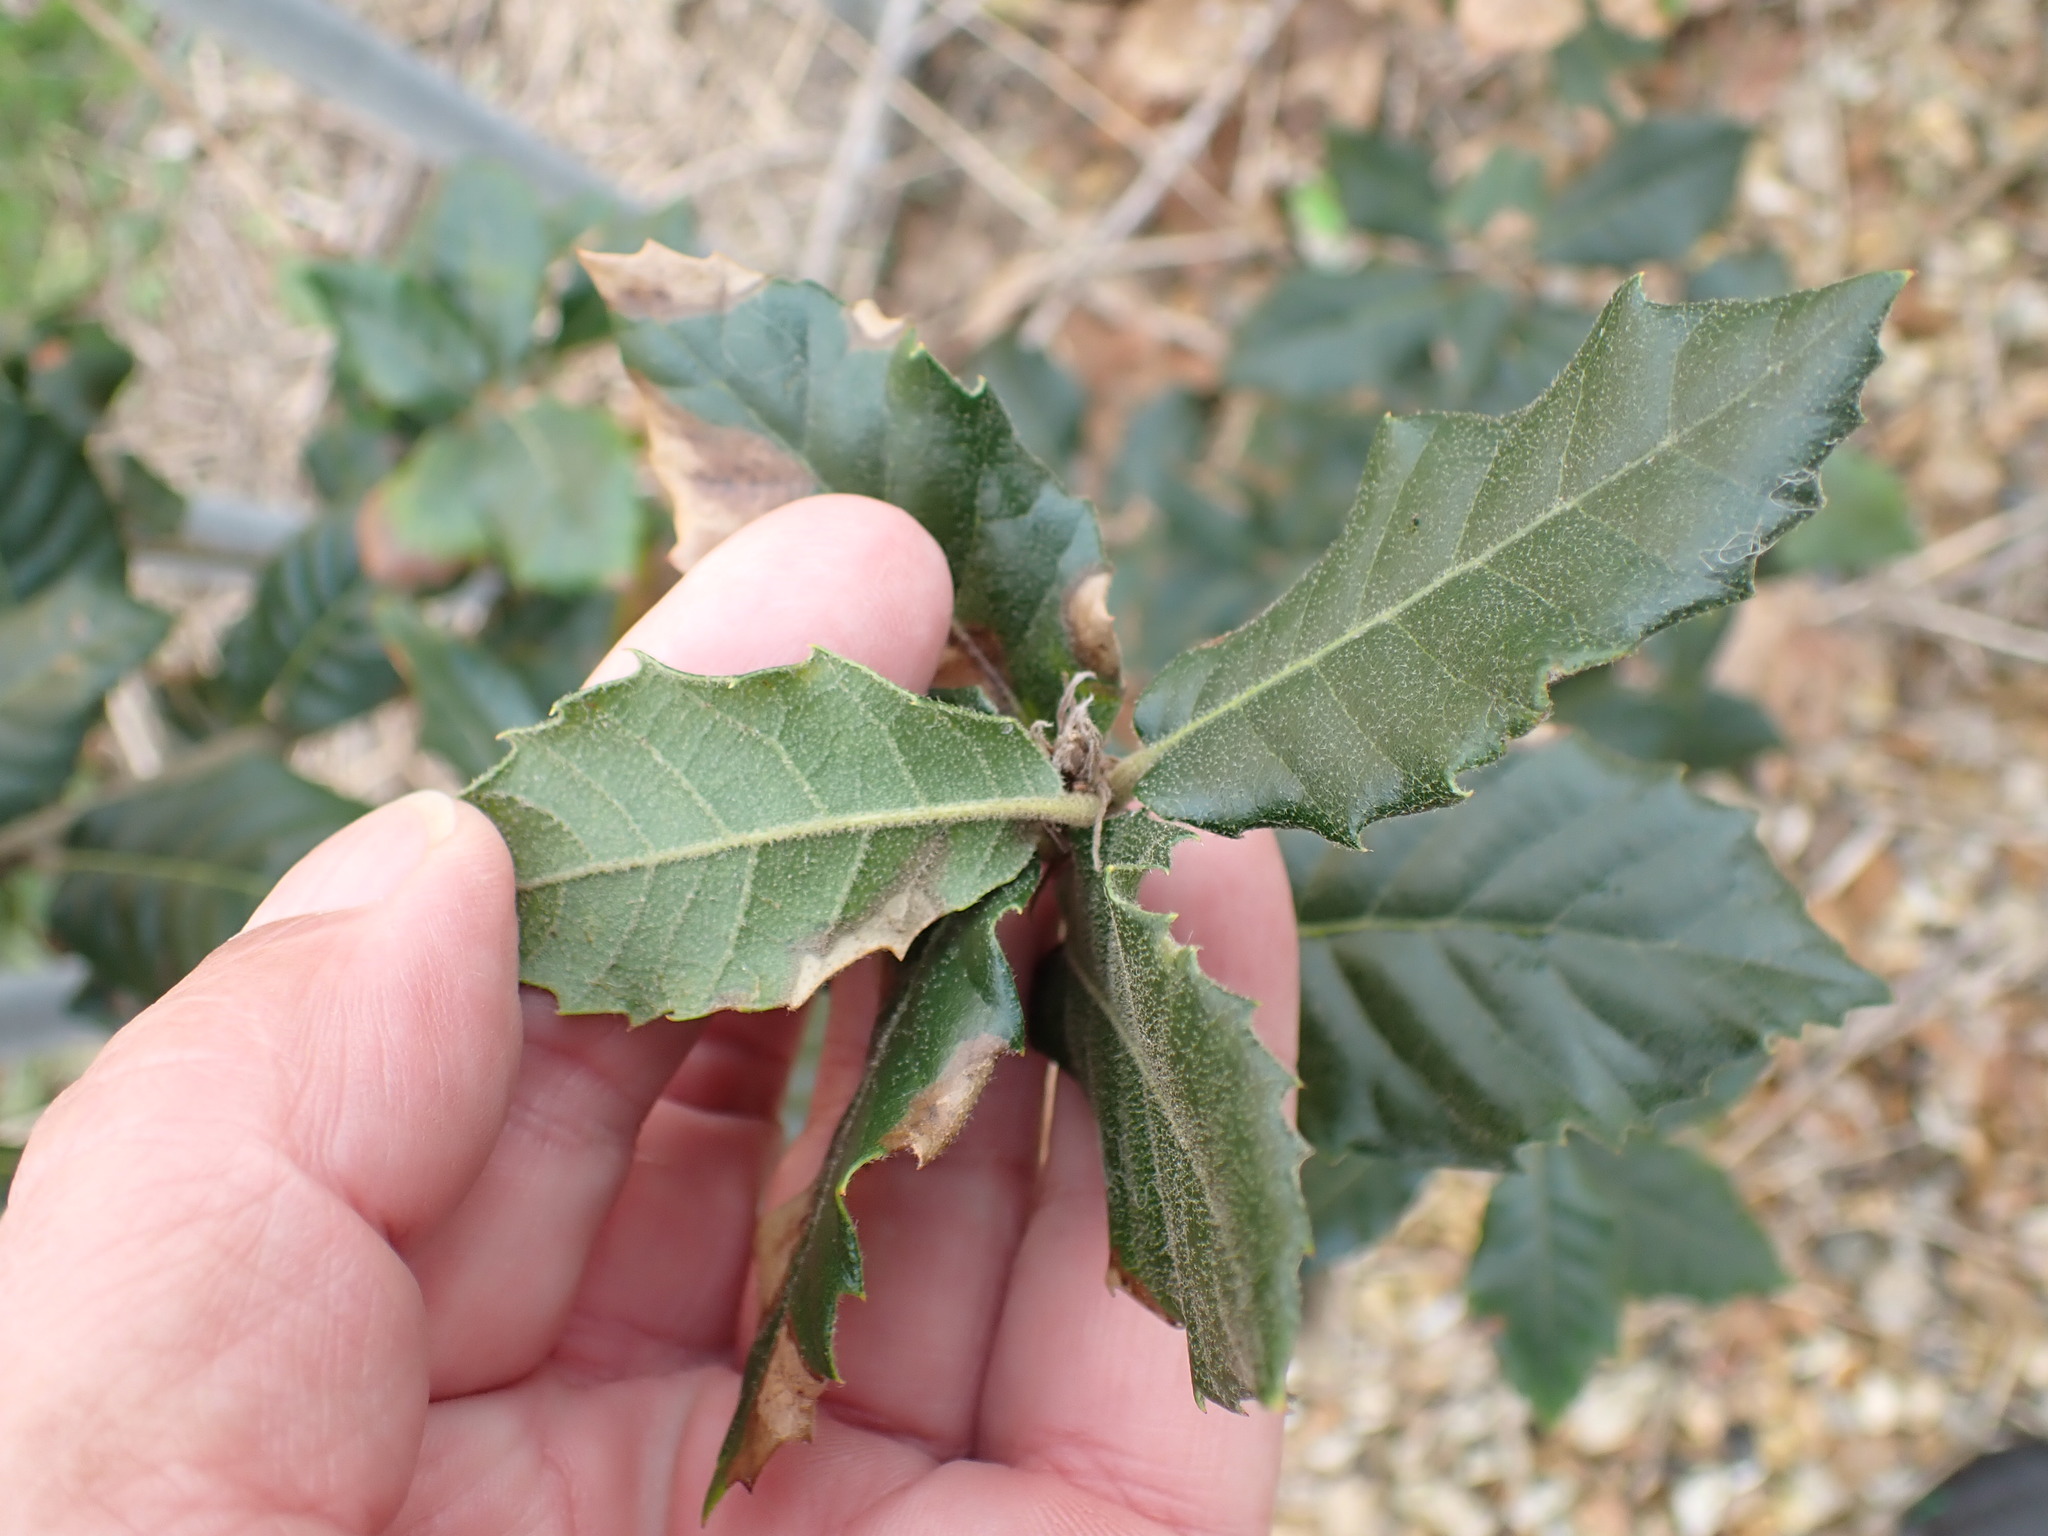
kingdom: Plantae
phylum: Tracheophyta
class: Magnoliopsida
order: Fagales
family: Fagaceae
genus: Quercus
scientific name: Quercus ilex
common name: Evergreen oak
